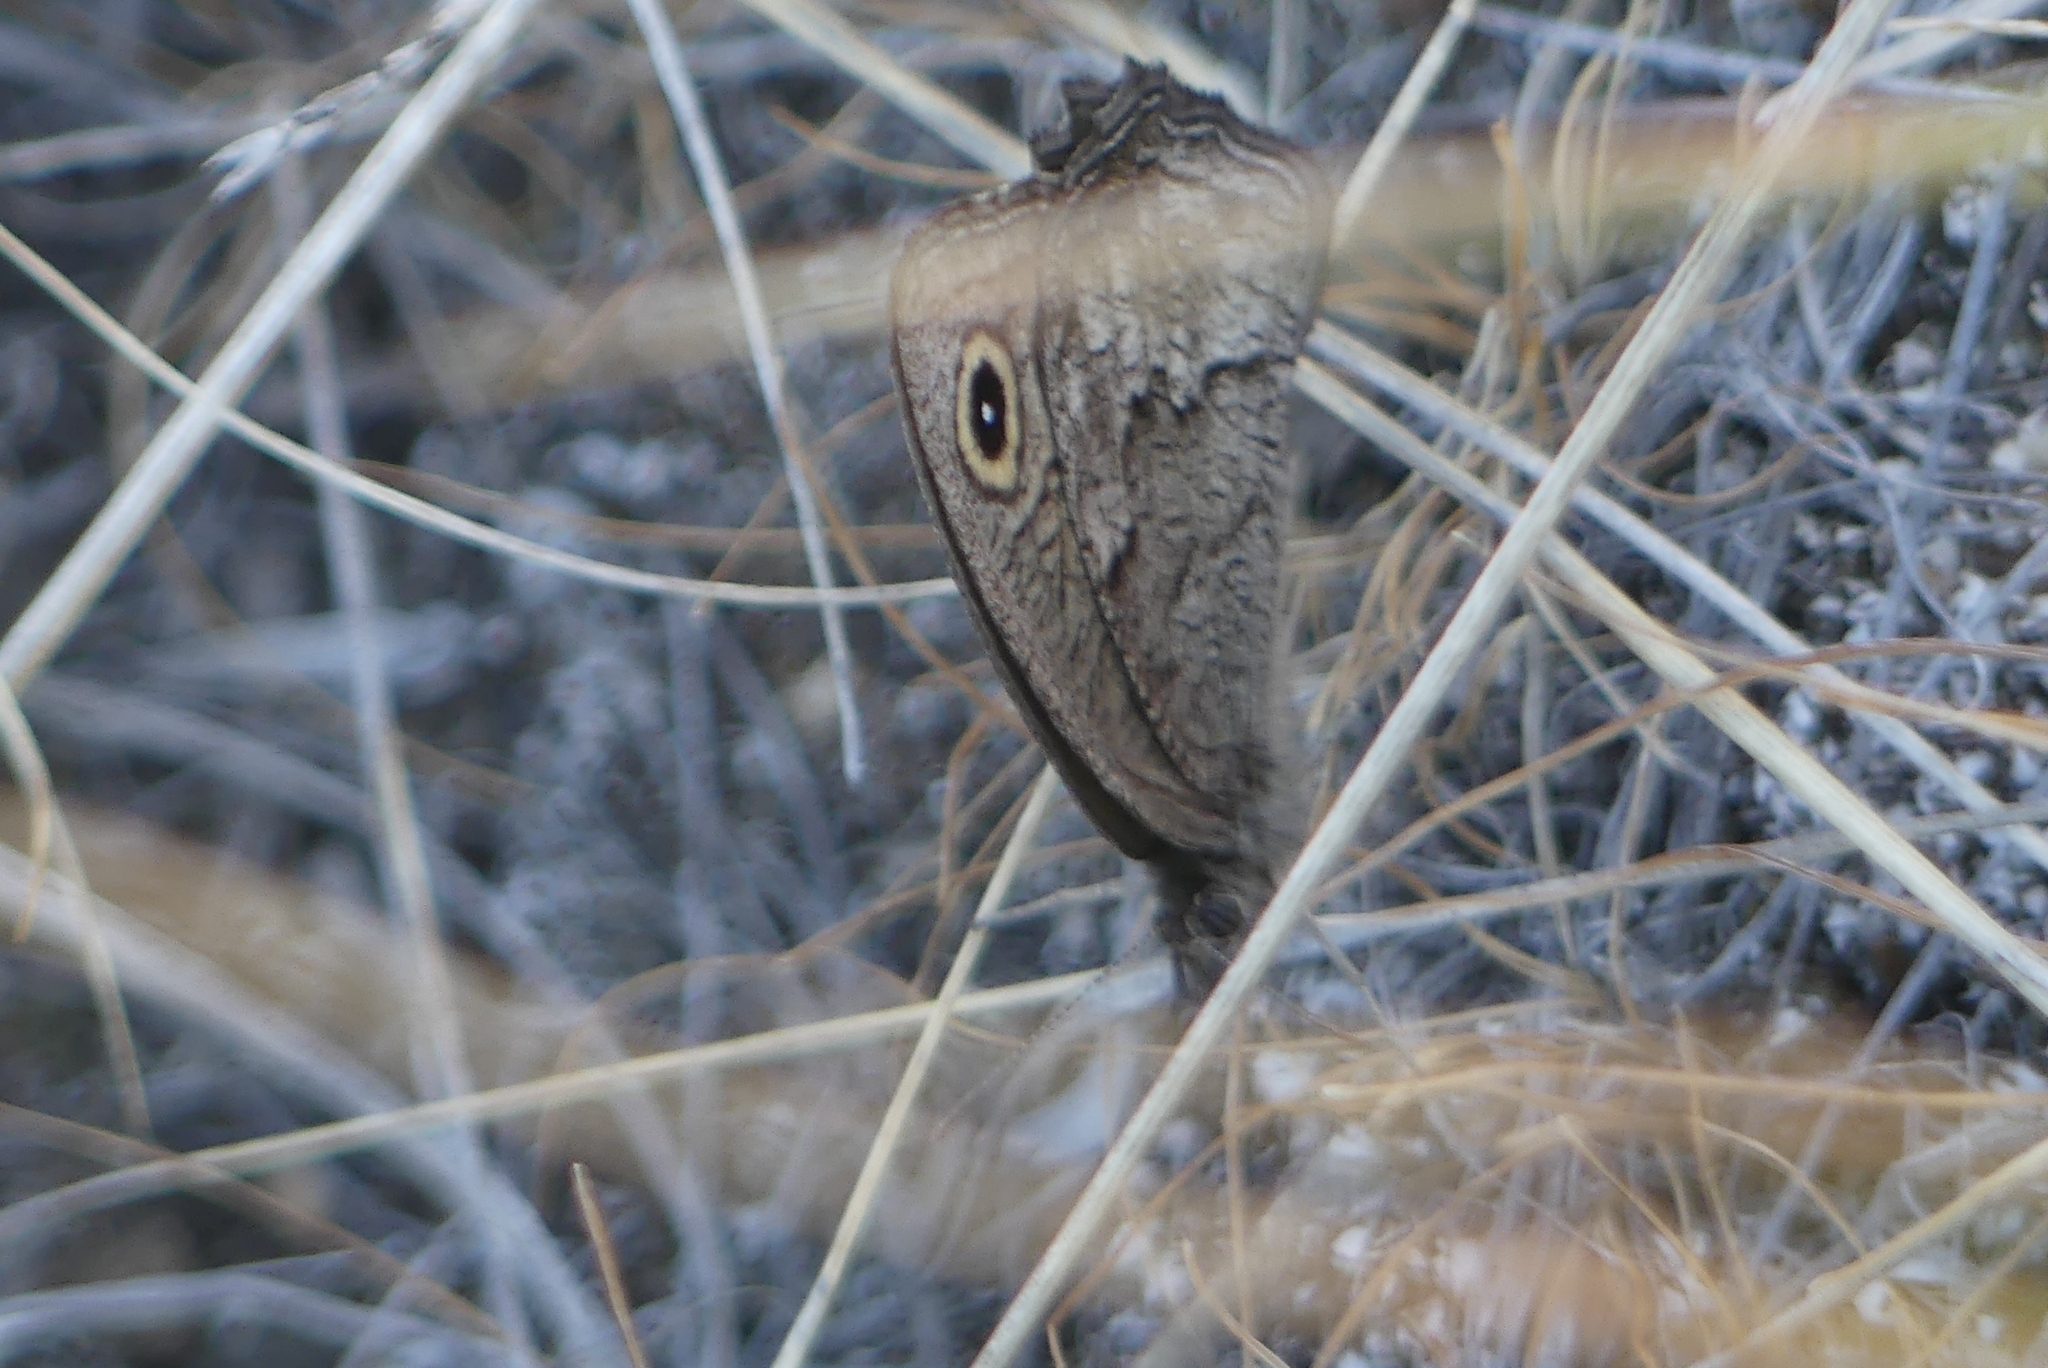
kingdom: Animalia
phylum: Arthropoda
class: Insecta
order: Lepidoptera
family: Nymphalidae
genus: Cercyonis
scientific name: Cercyonis sthenele
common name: Great basin wood-nymph
